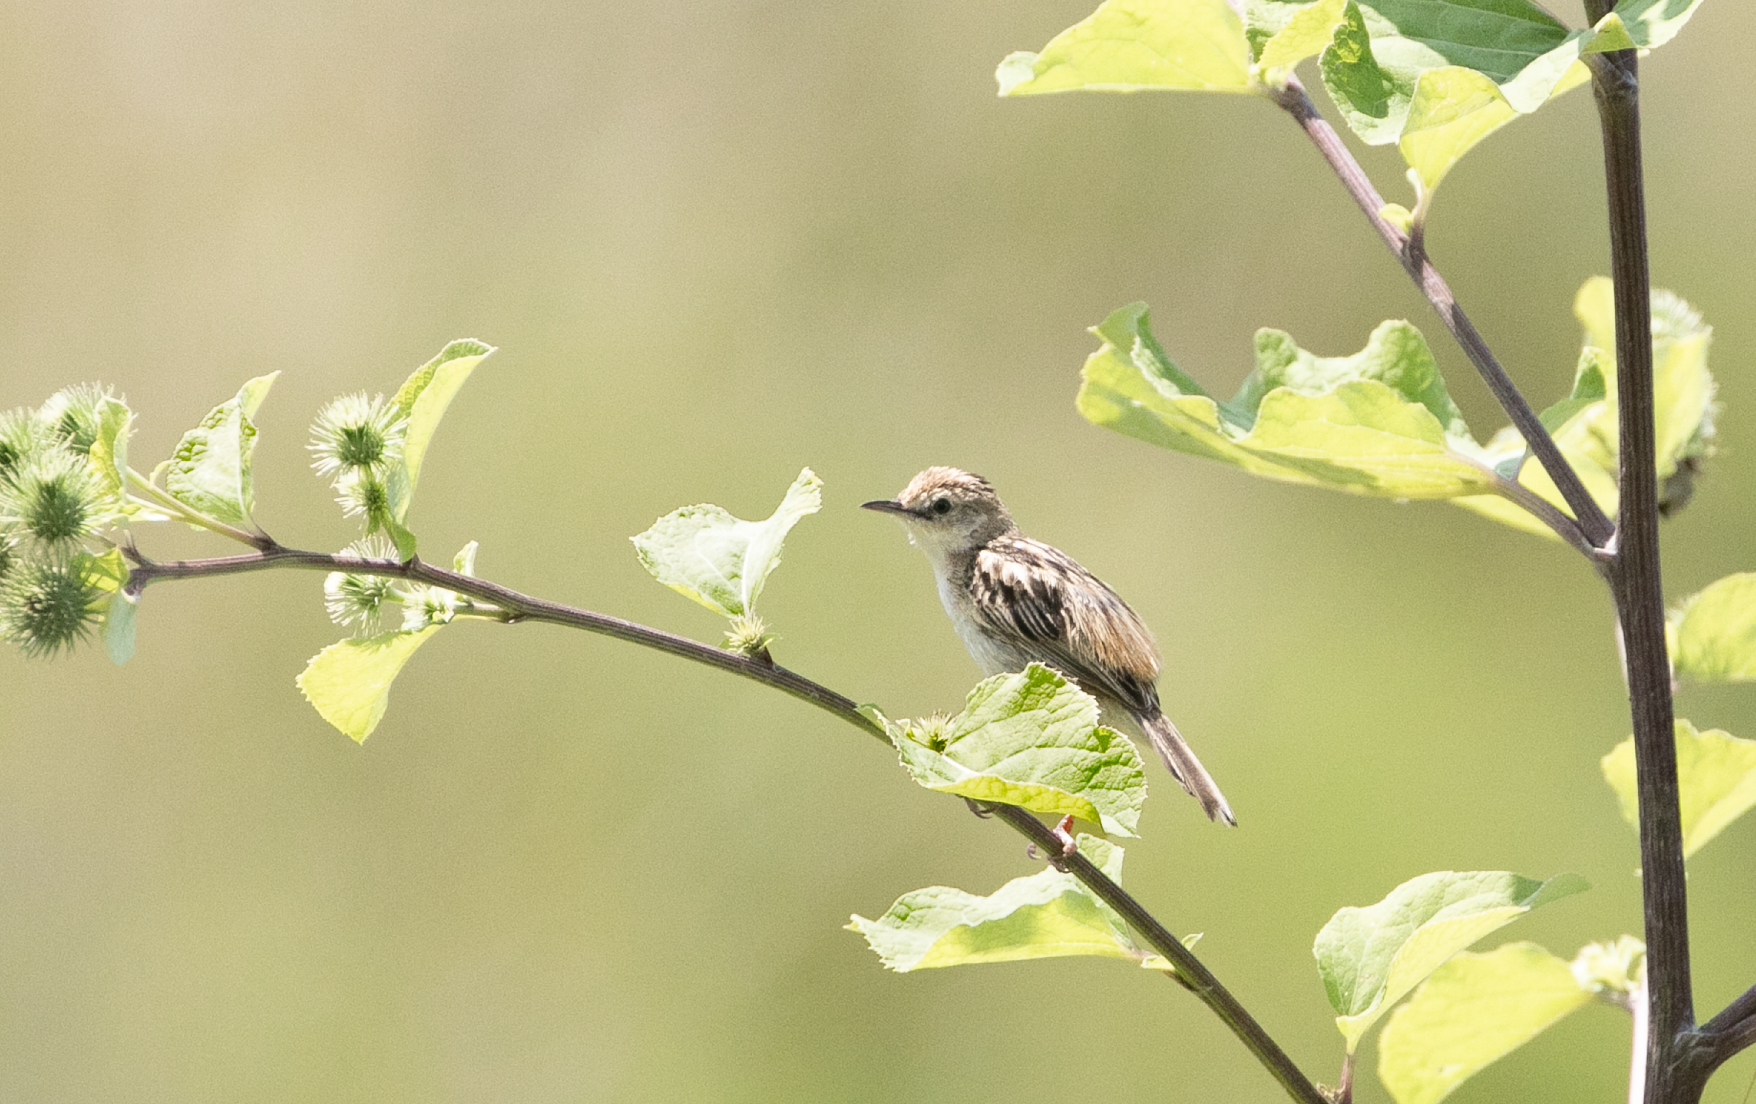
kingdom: Animalia
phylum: Chordata
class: Aves
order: Passeriformes
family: Cisticolidae
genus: Cisticola
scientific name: Cisticola juncidis
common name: Zitting cisticola
